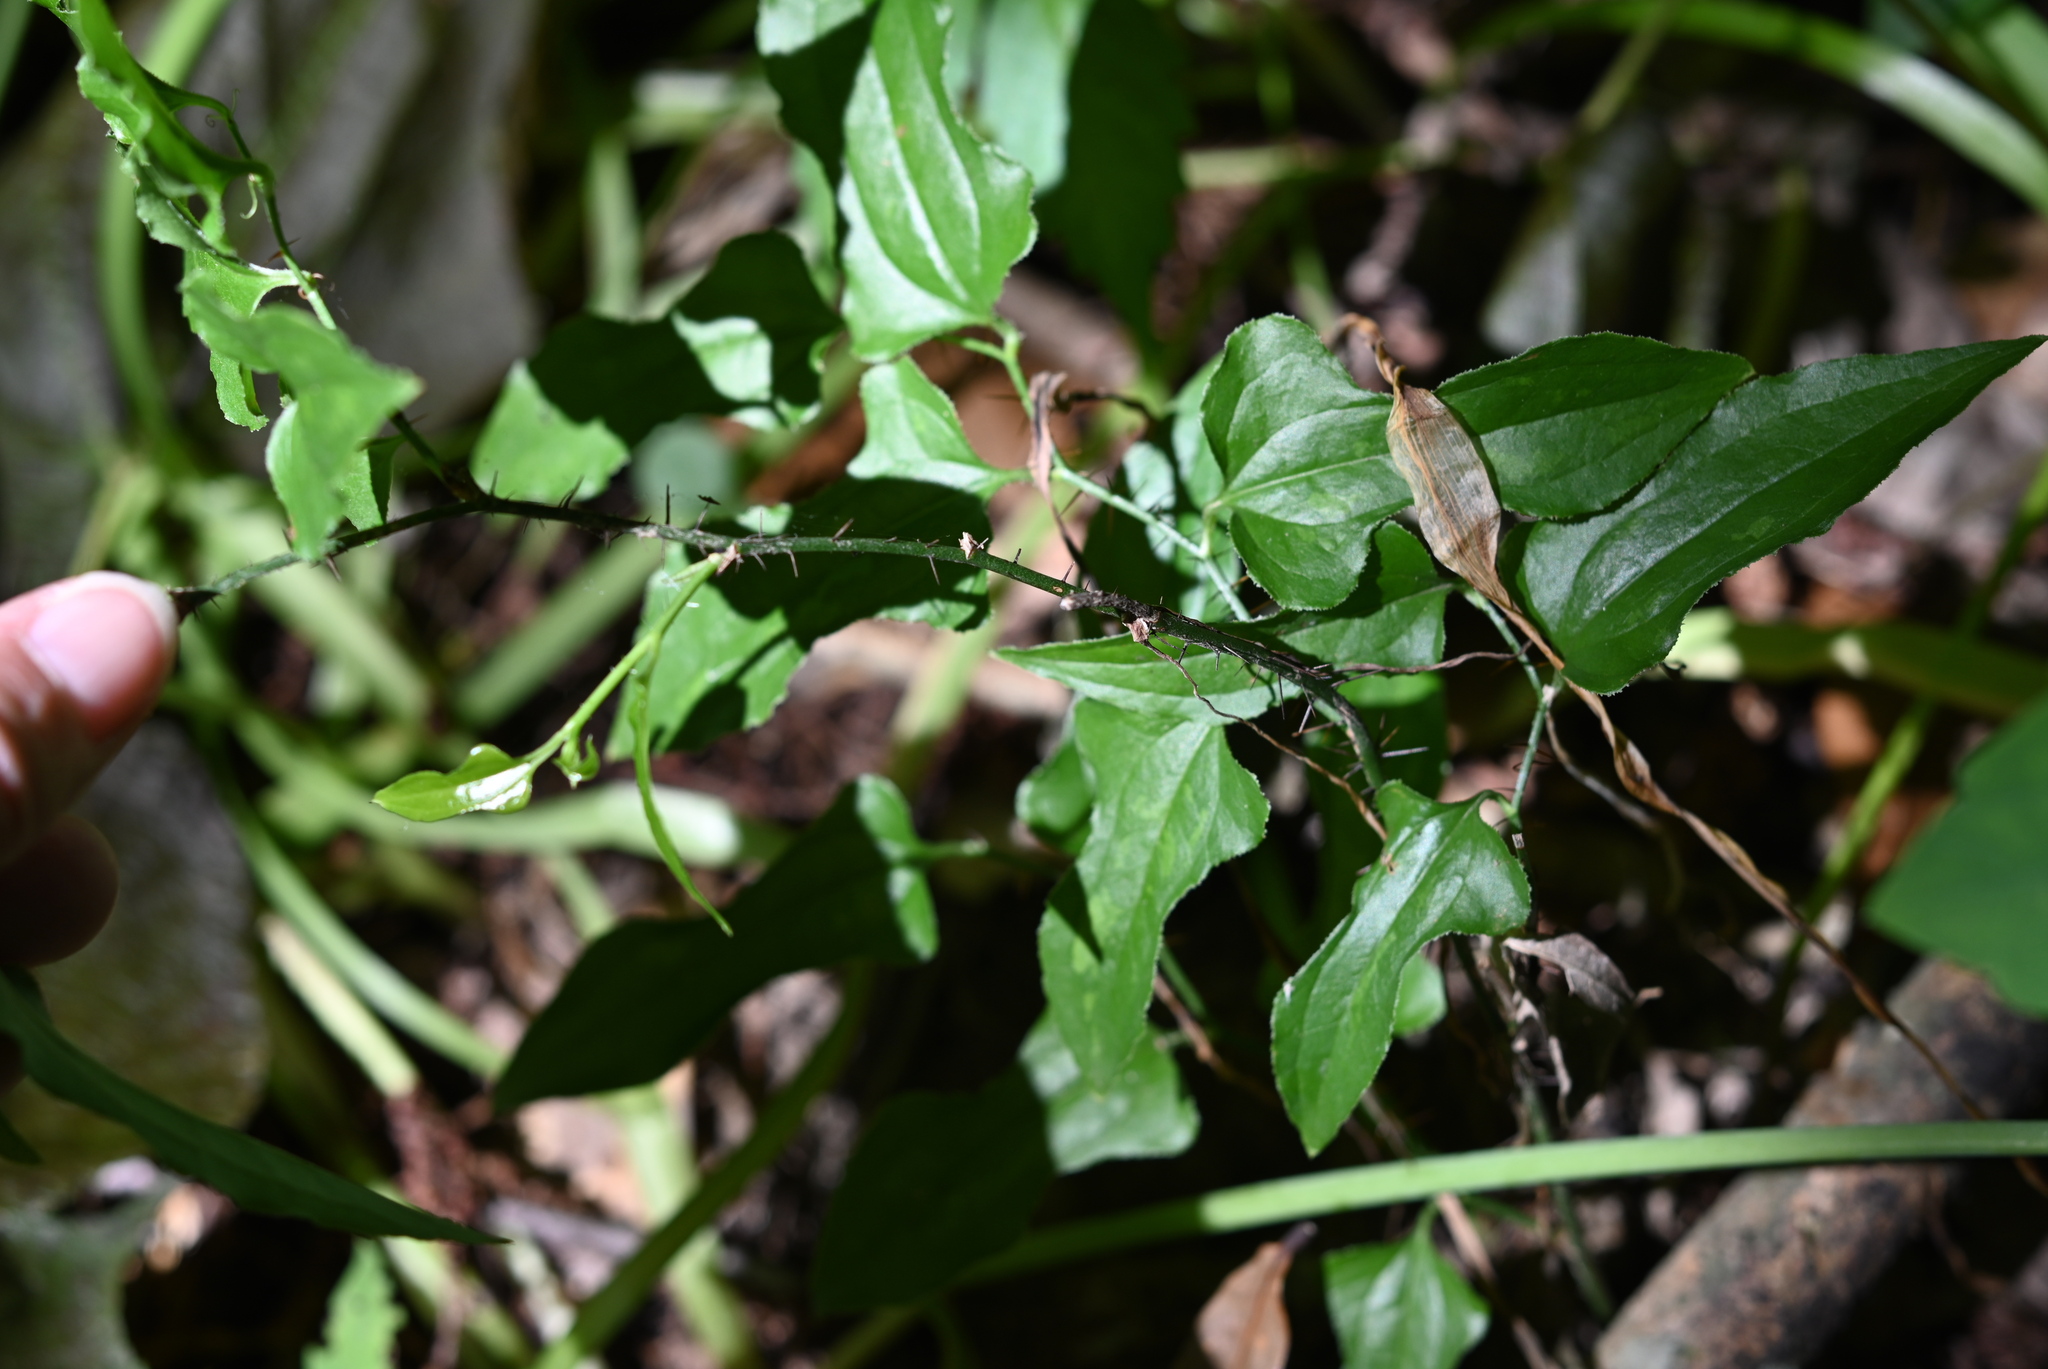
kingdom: Plantae
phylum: Tracheophyta
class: Liliopsida
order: Liliales
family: Smilacaceae
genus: Smilax
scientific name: Smilax tamnoides
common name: Hellfetter
